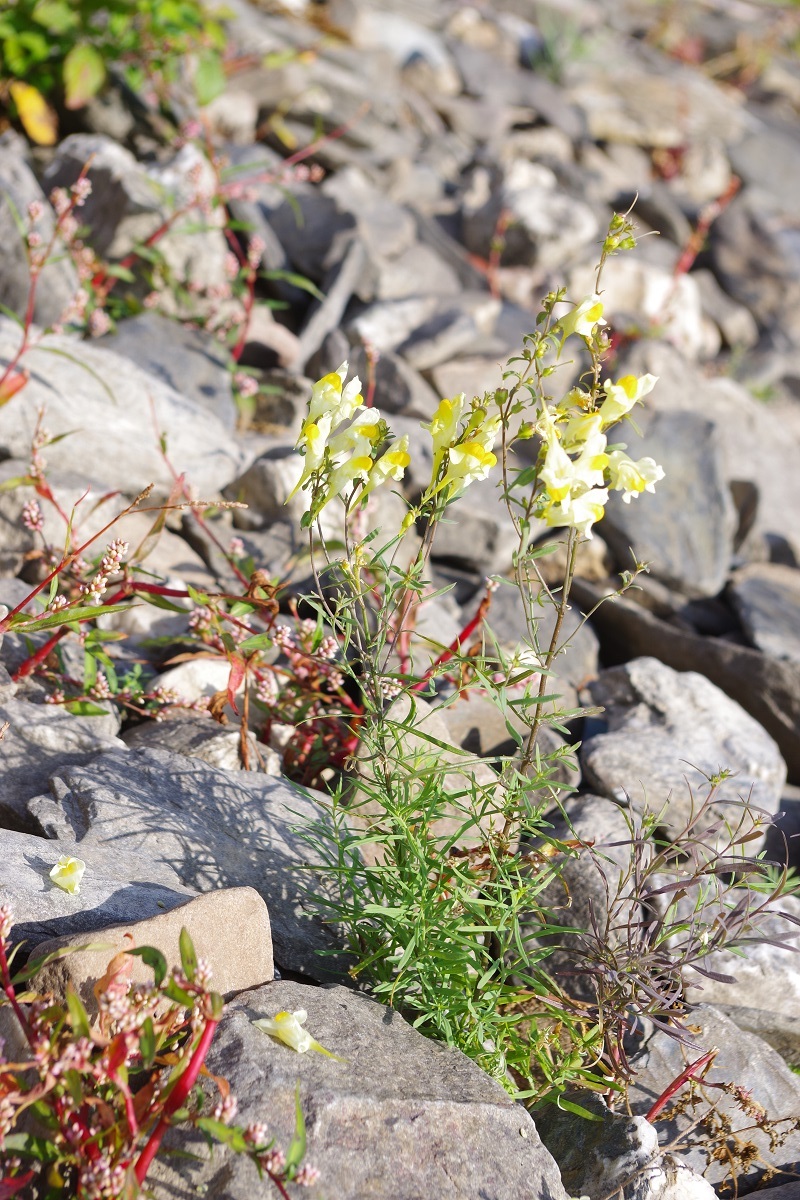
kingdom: Plantae
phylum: Tracheophyta
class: Magnoliopsida
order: Lamiales
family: Plantaginaceae
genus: Linaria
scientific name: Linaria vulgaris
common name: Butter and eggs
